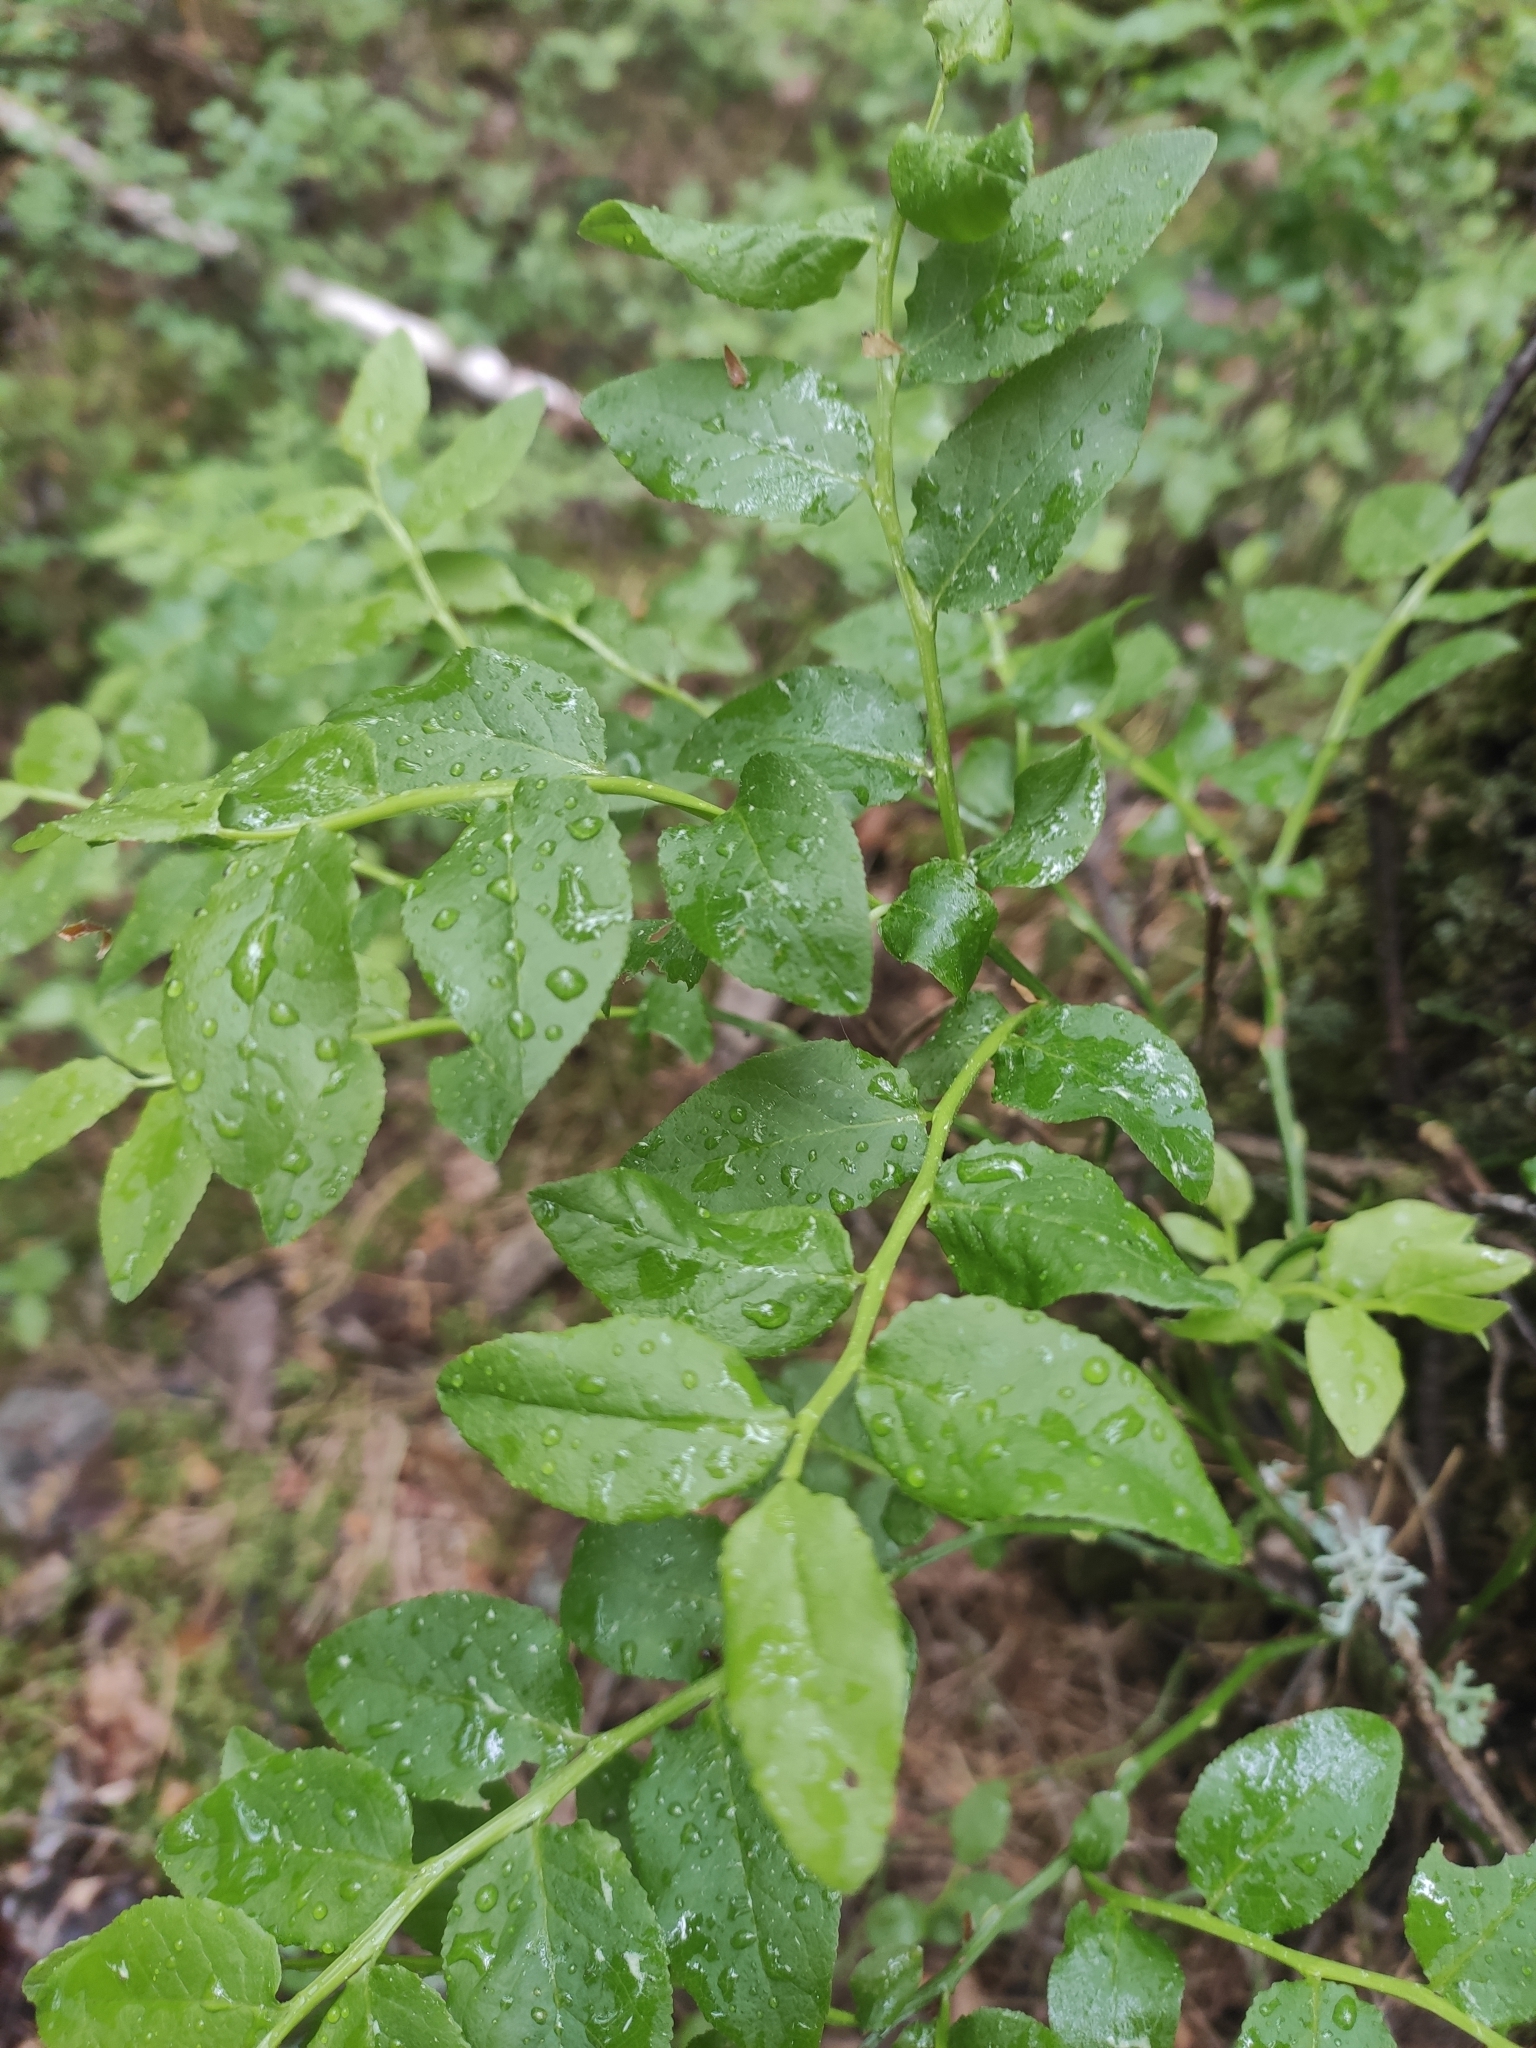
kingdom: Plantae
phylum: Tracheophyta
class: Magnoliopsida
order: Ericales
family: Ericaceae
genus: Vaccinium
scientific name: Vaccinium myrtillus
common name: Bilberry
